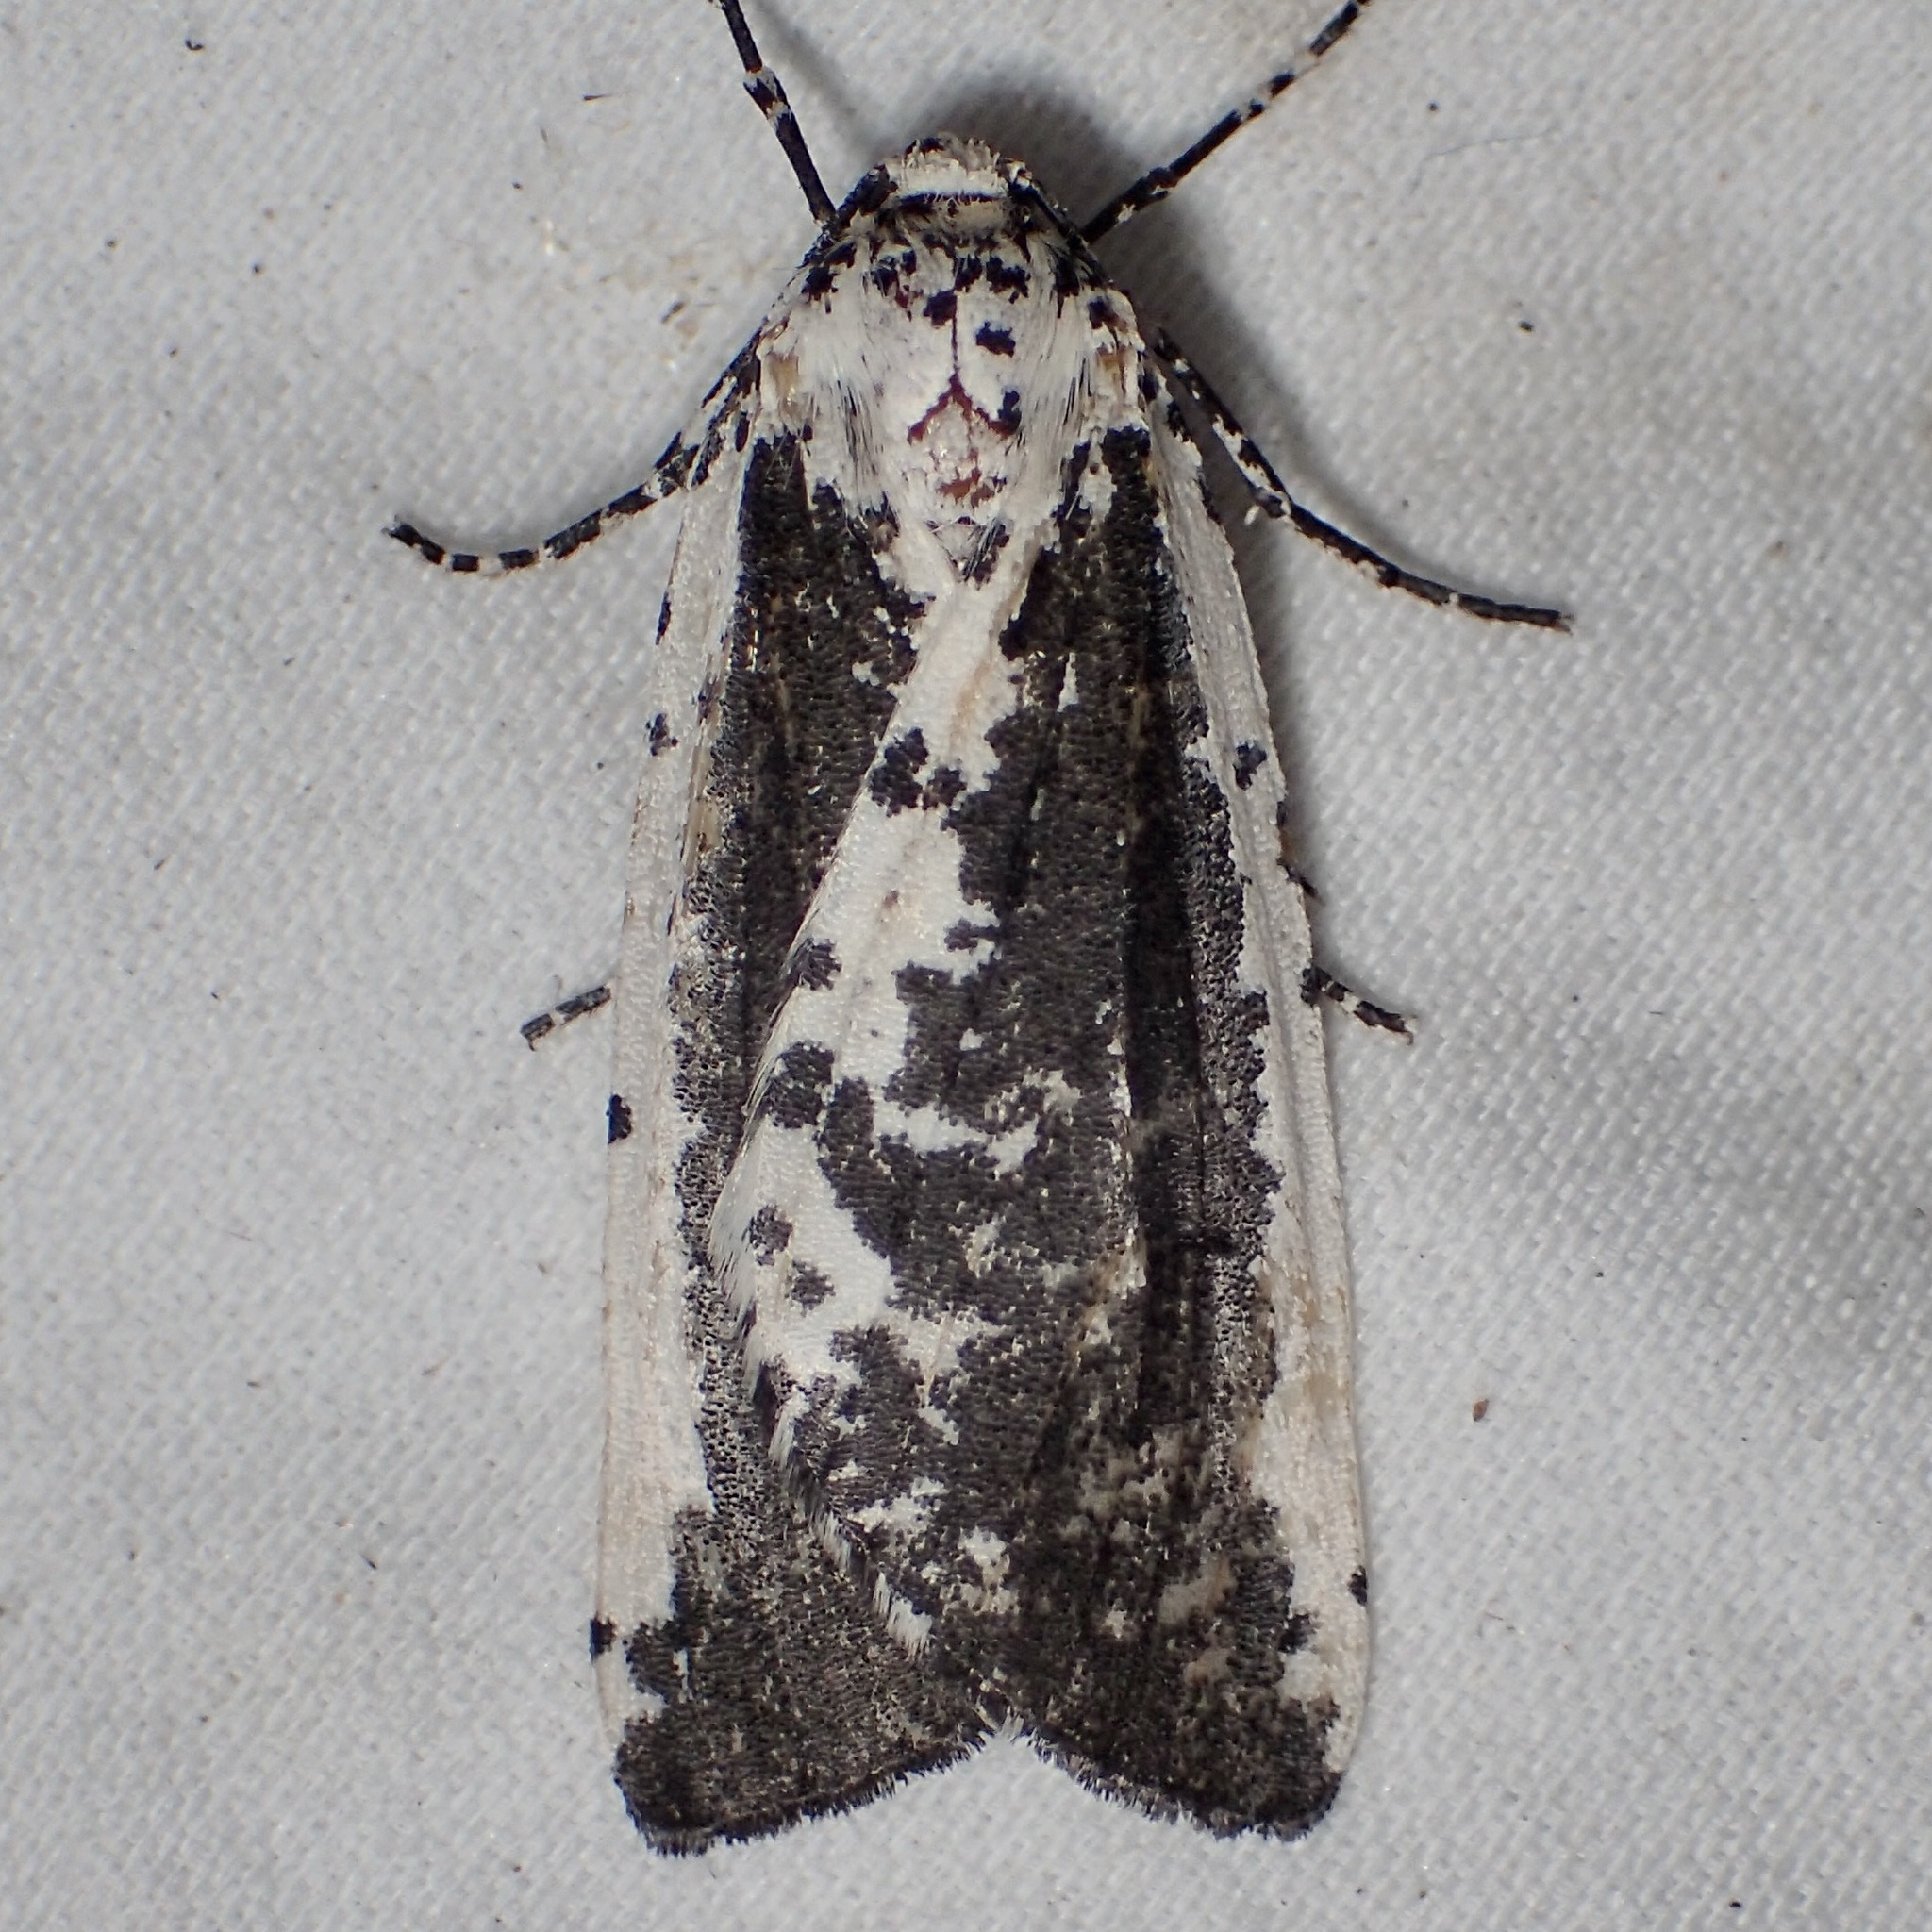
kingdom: Animalia
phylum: Arthropoda
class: Insecta
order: Lepidoptera
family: Geometridae
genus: Eucaterva
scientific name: Eucaterva variaria
